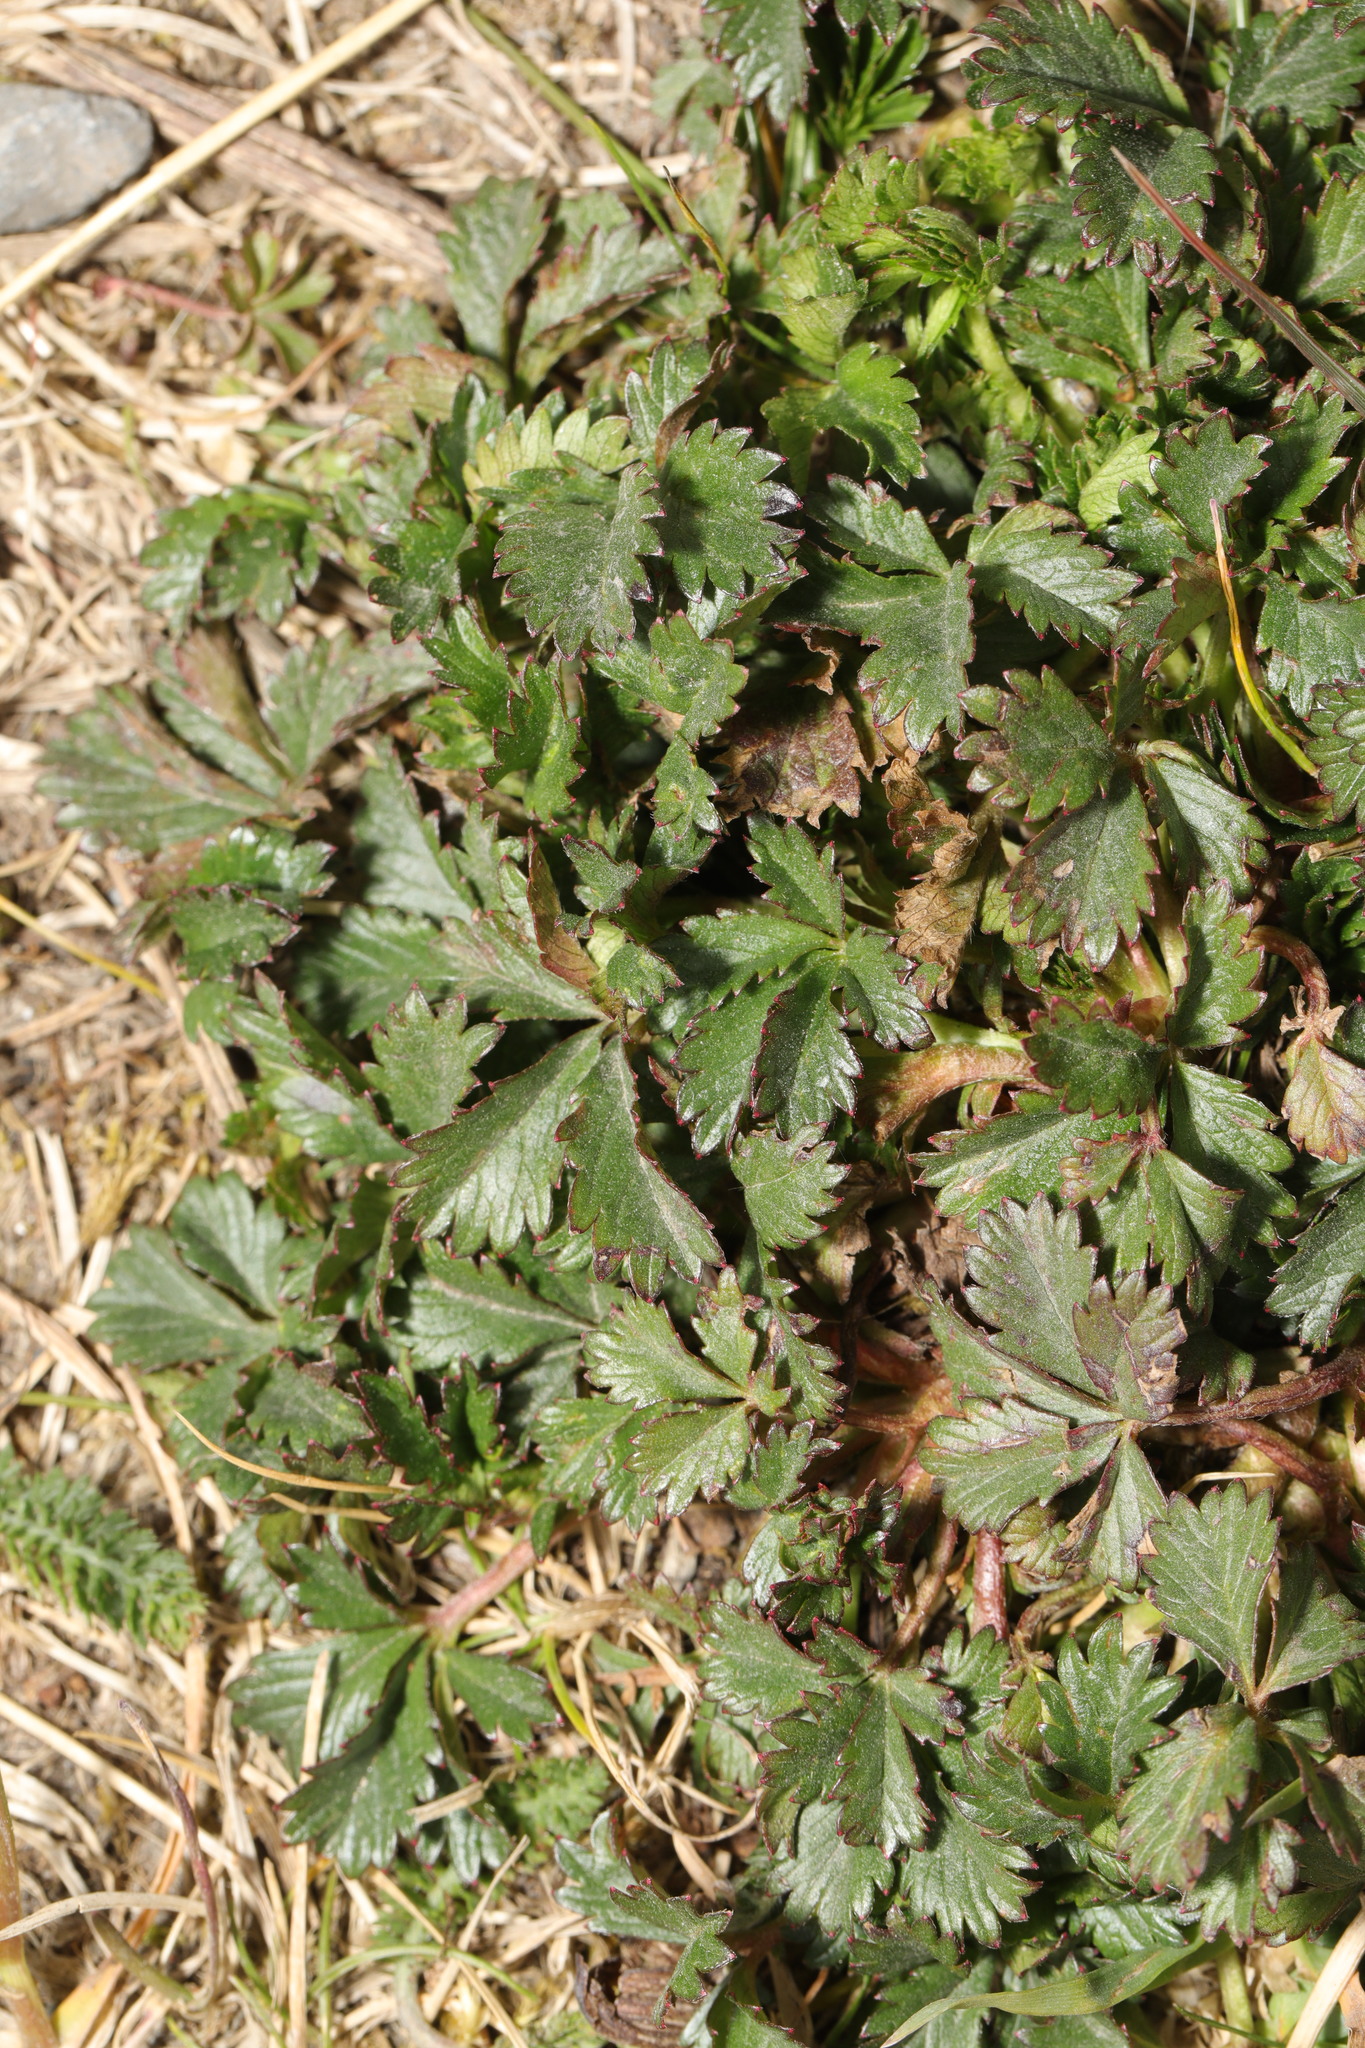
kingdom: Plantae
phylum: Tracheophyta
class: Magnoliopsida
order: Rosales
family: Rosaceae
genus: Potentilla
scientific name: Potentilla mixta
